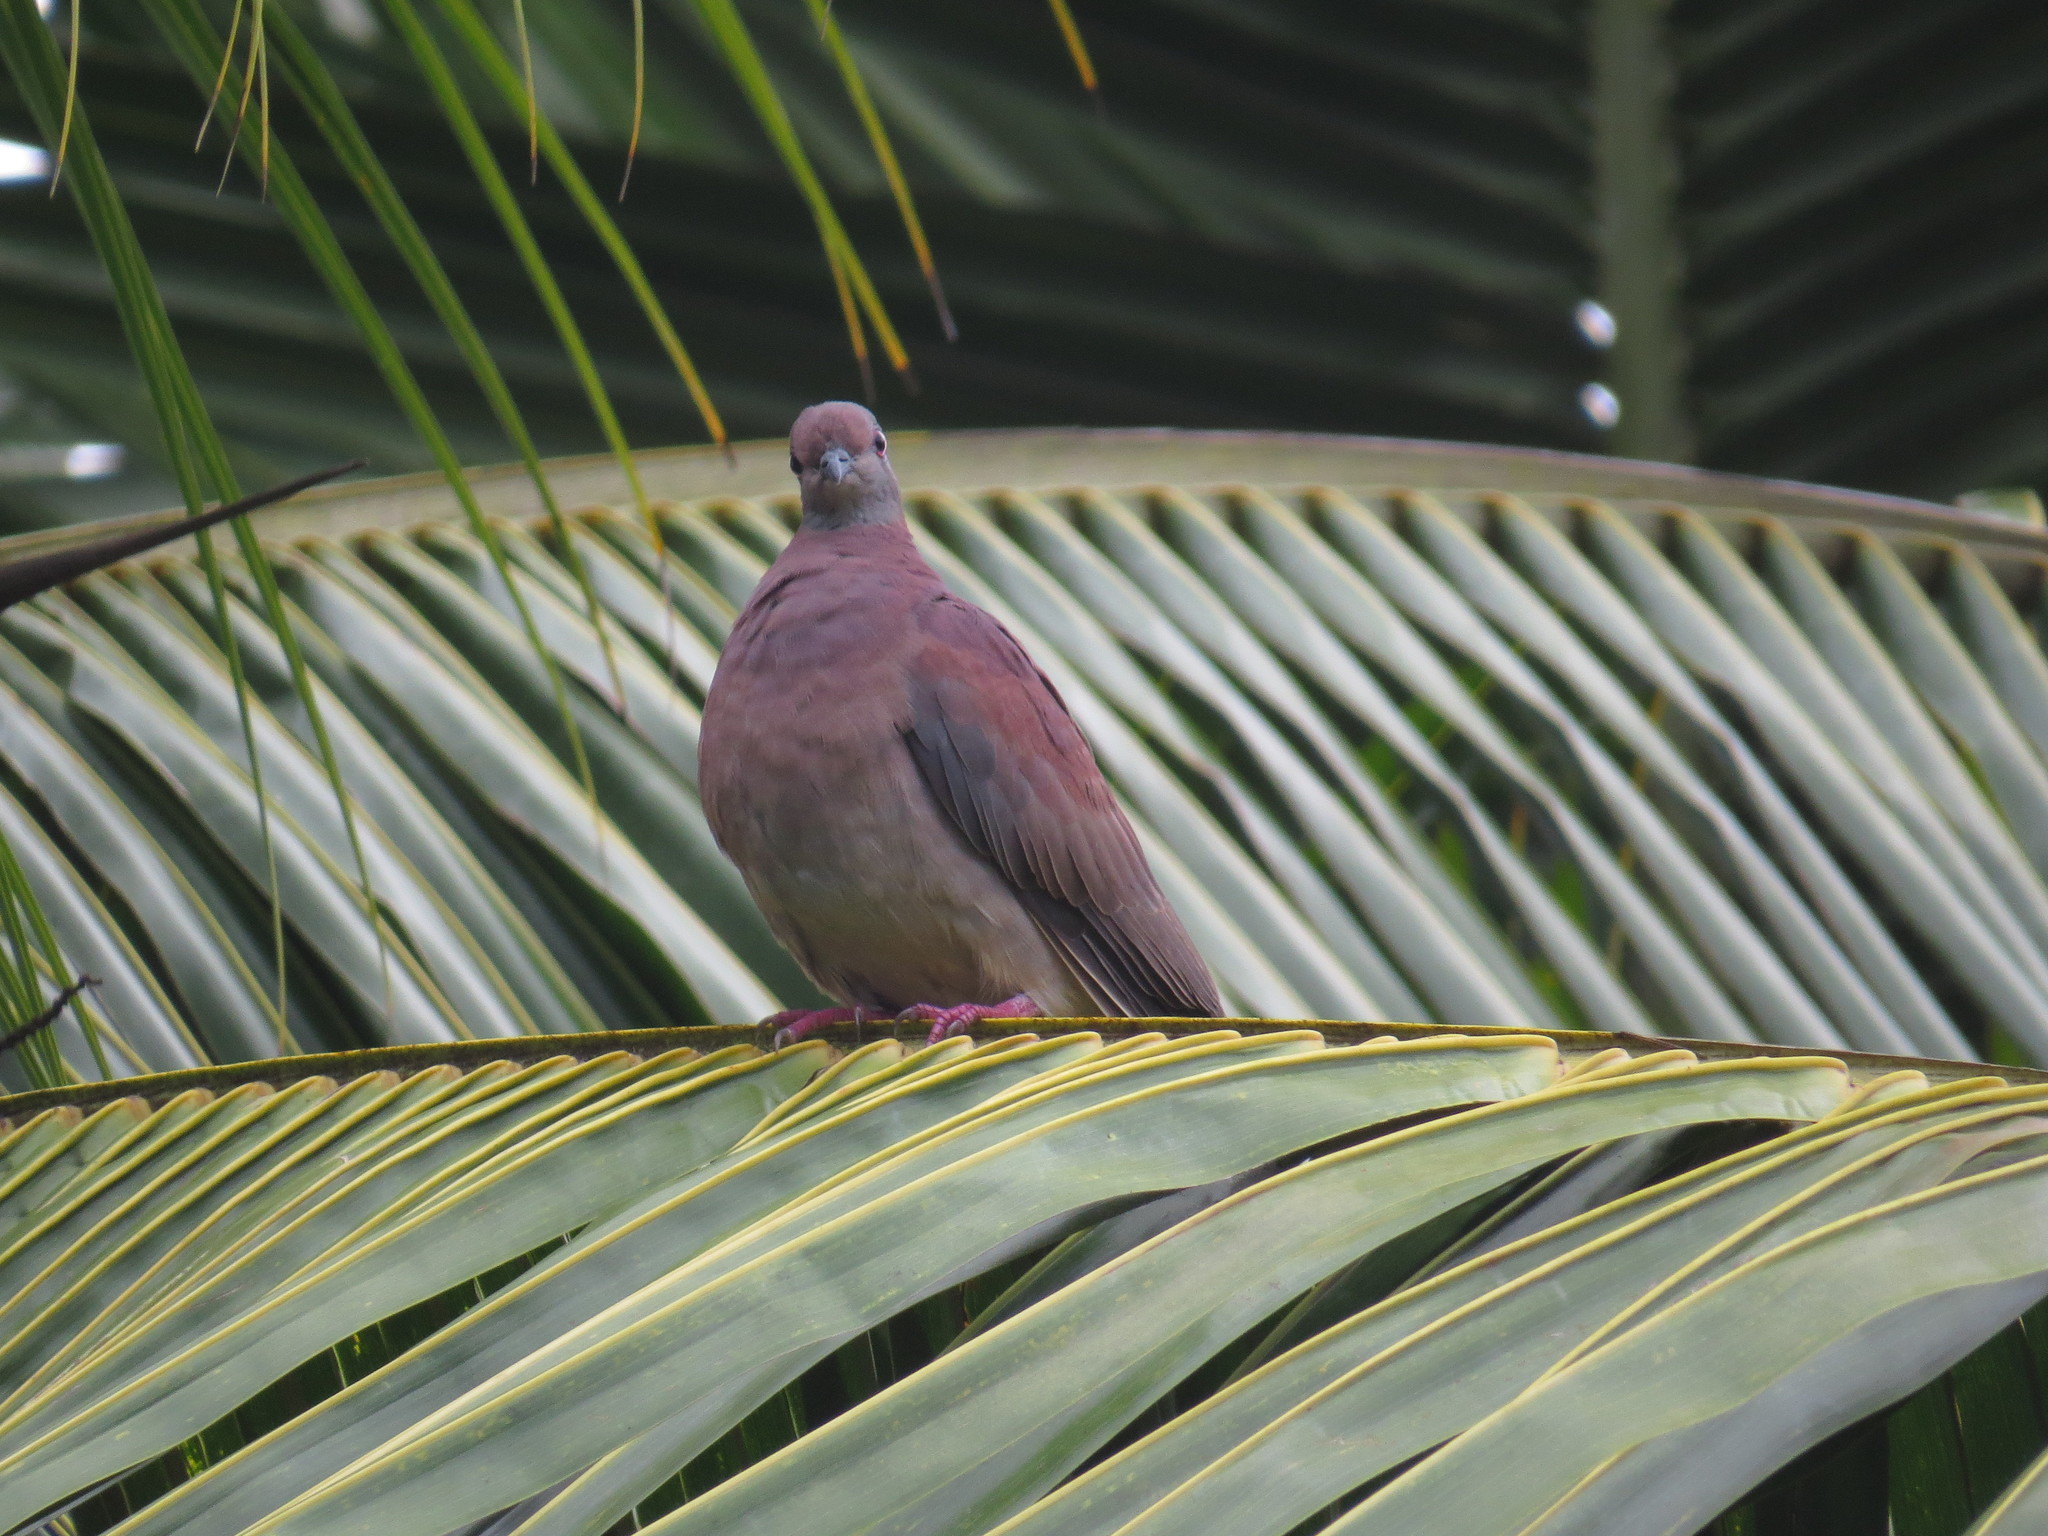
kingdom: Animalia
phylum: Chordata
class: Aves
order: Columbiformes
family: Columbidae
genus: Patagioenas
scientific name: Patagioenas cayennensis
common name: Pale-vented pigeon
